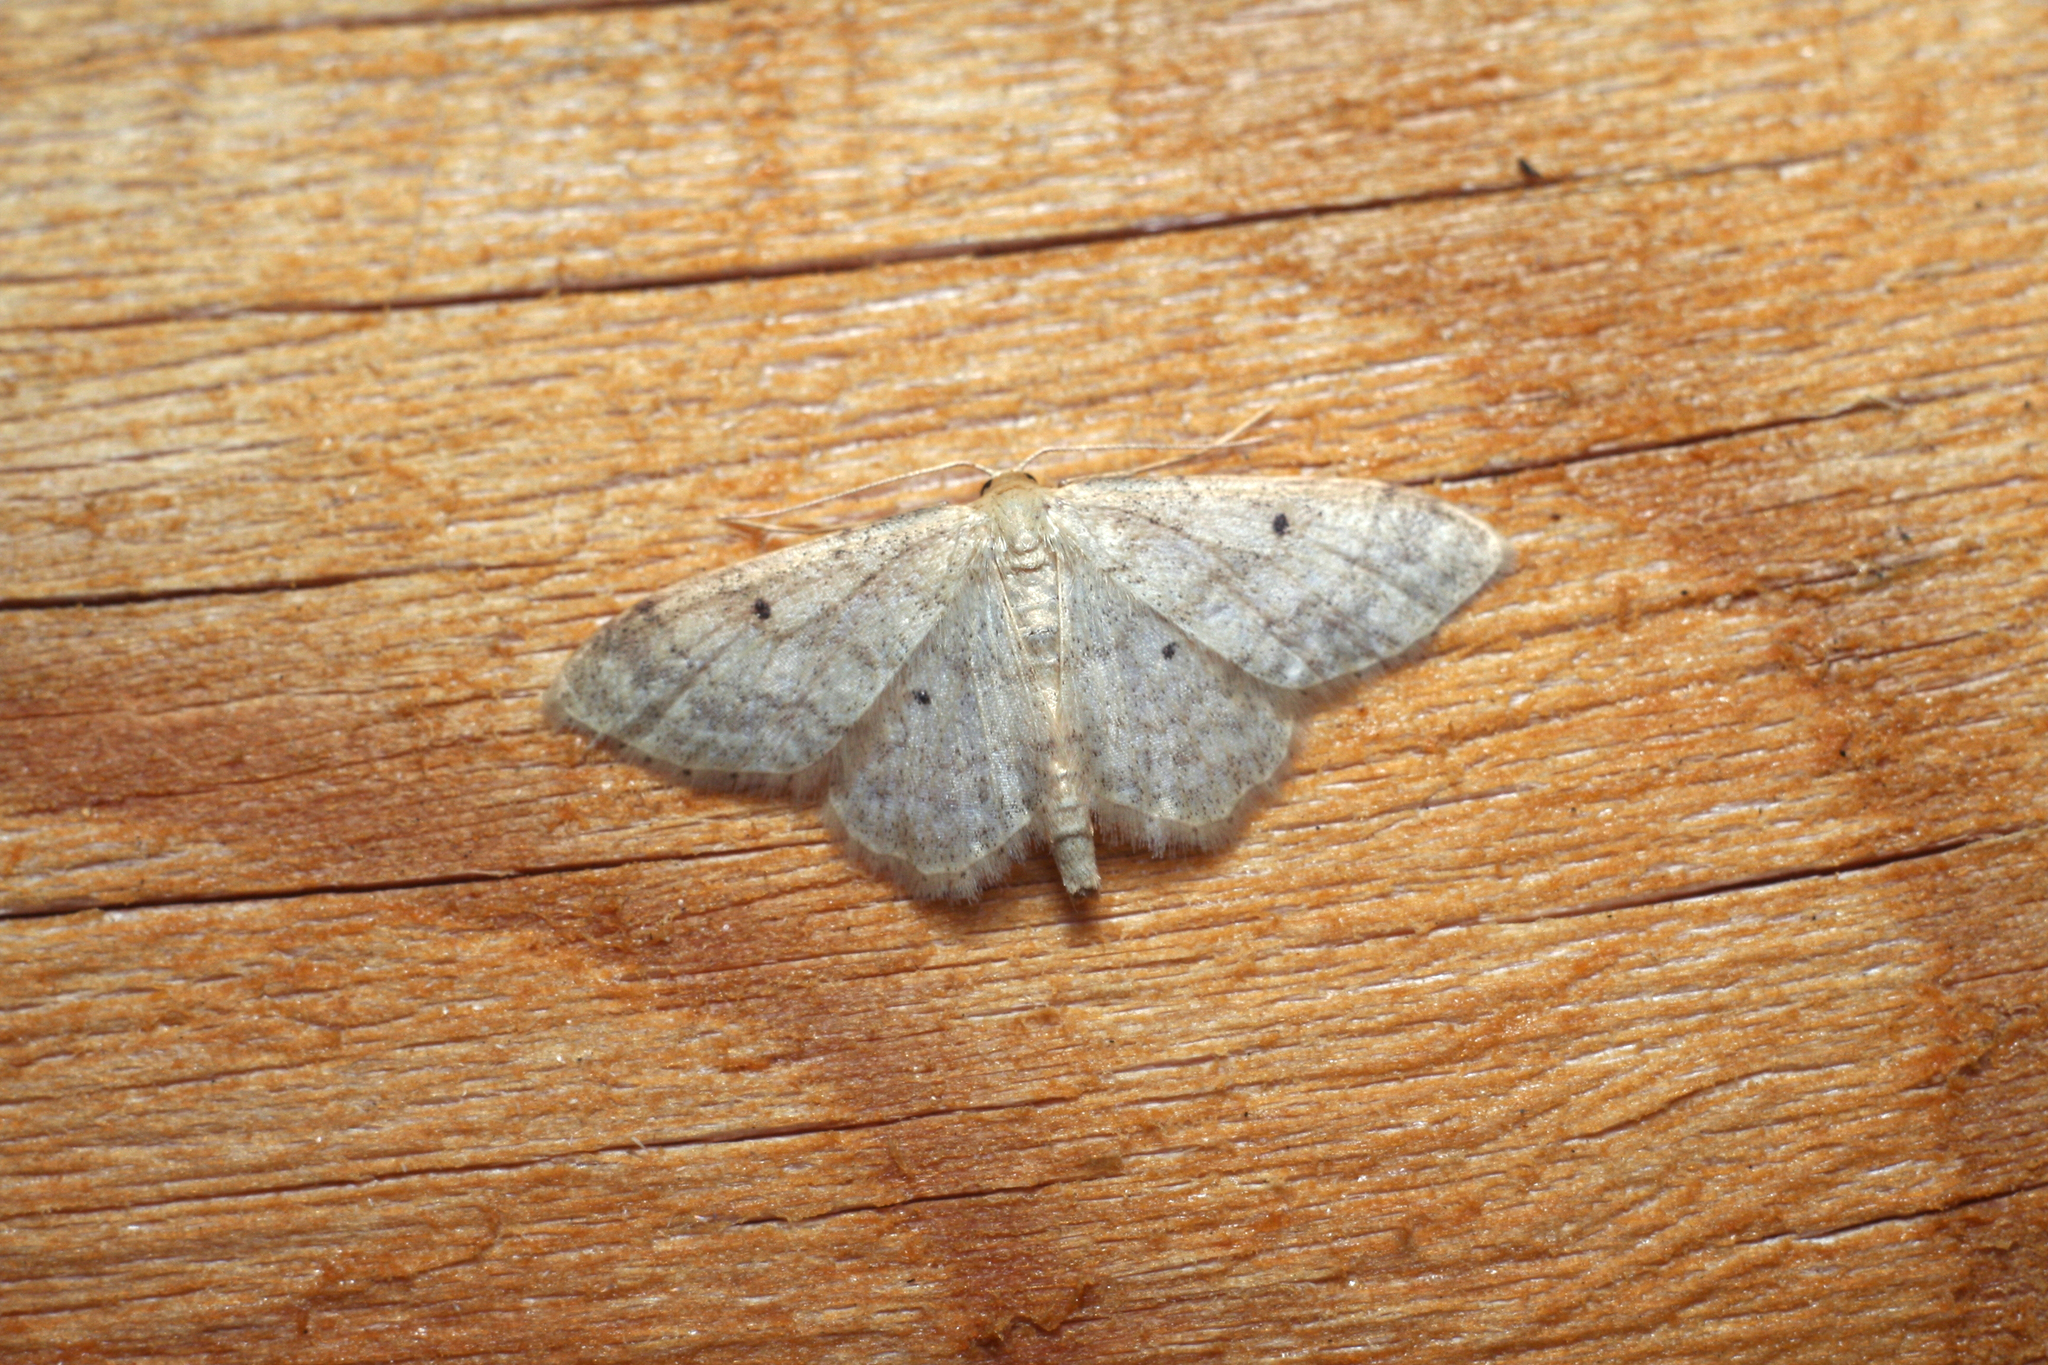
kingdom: Animalia
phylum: Arthropoda
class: Insecta
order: Lepidoptera
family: Geometridae
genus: Idaea
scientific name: Idaea biselata
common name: Small fan-footed wave
